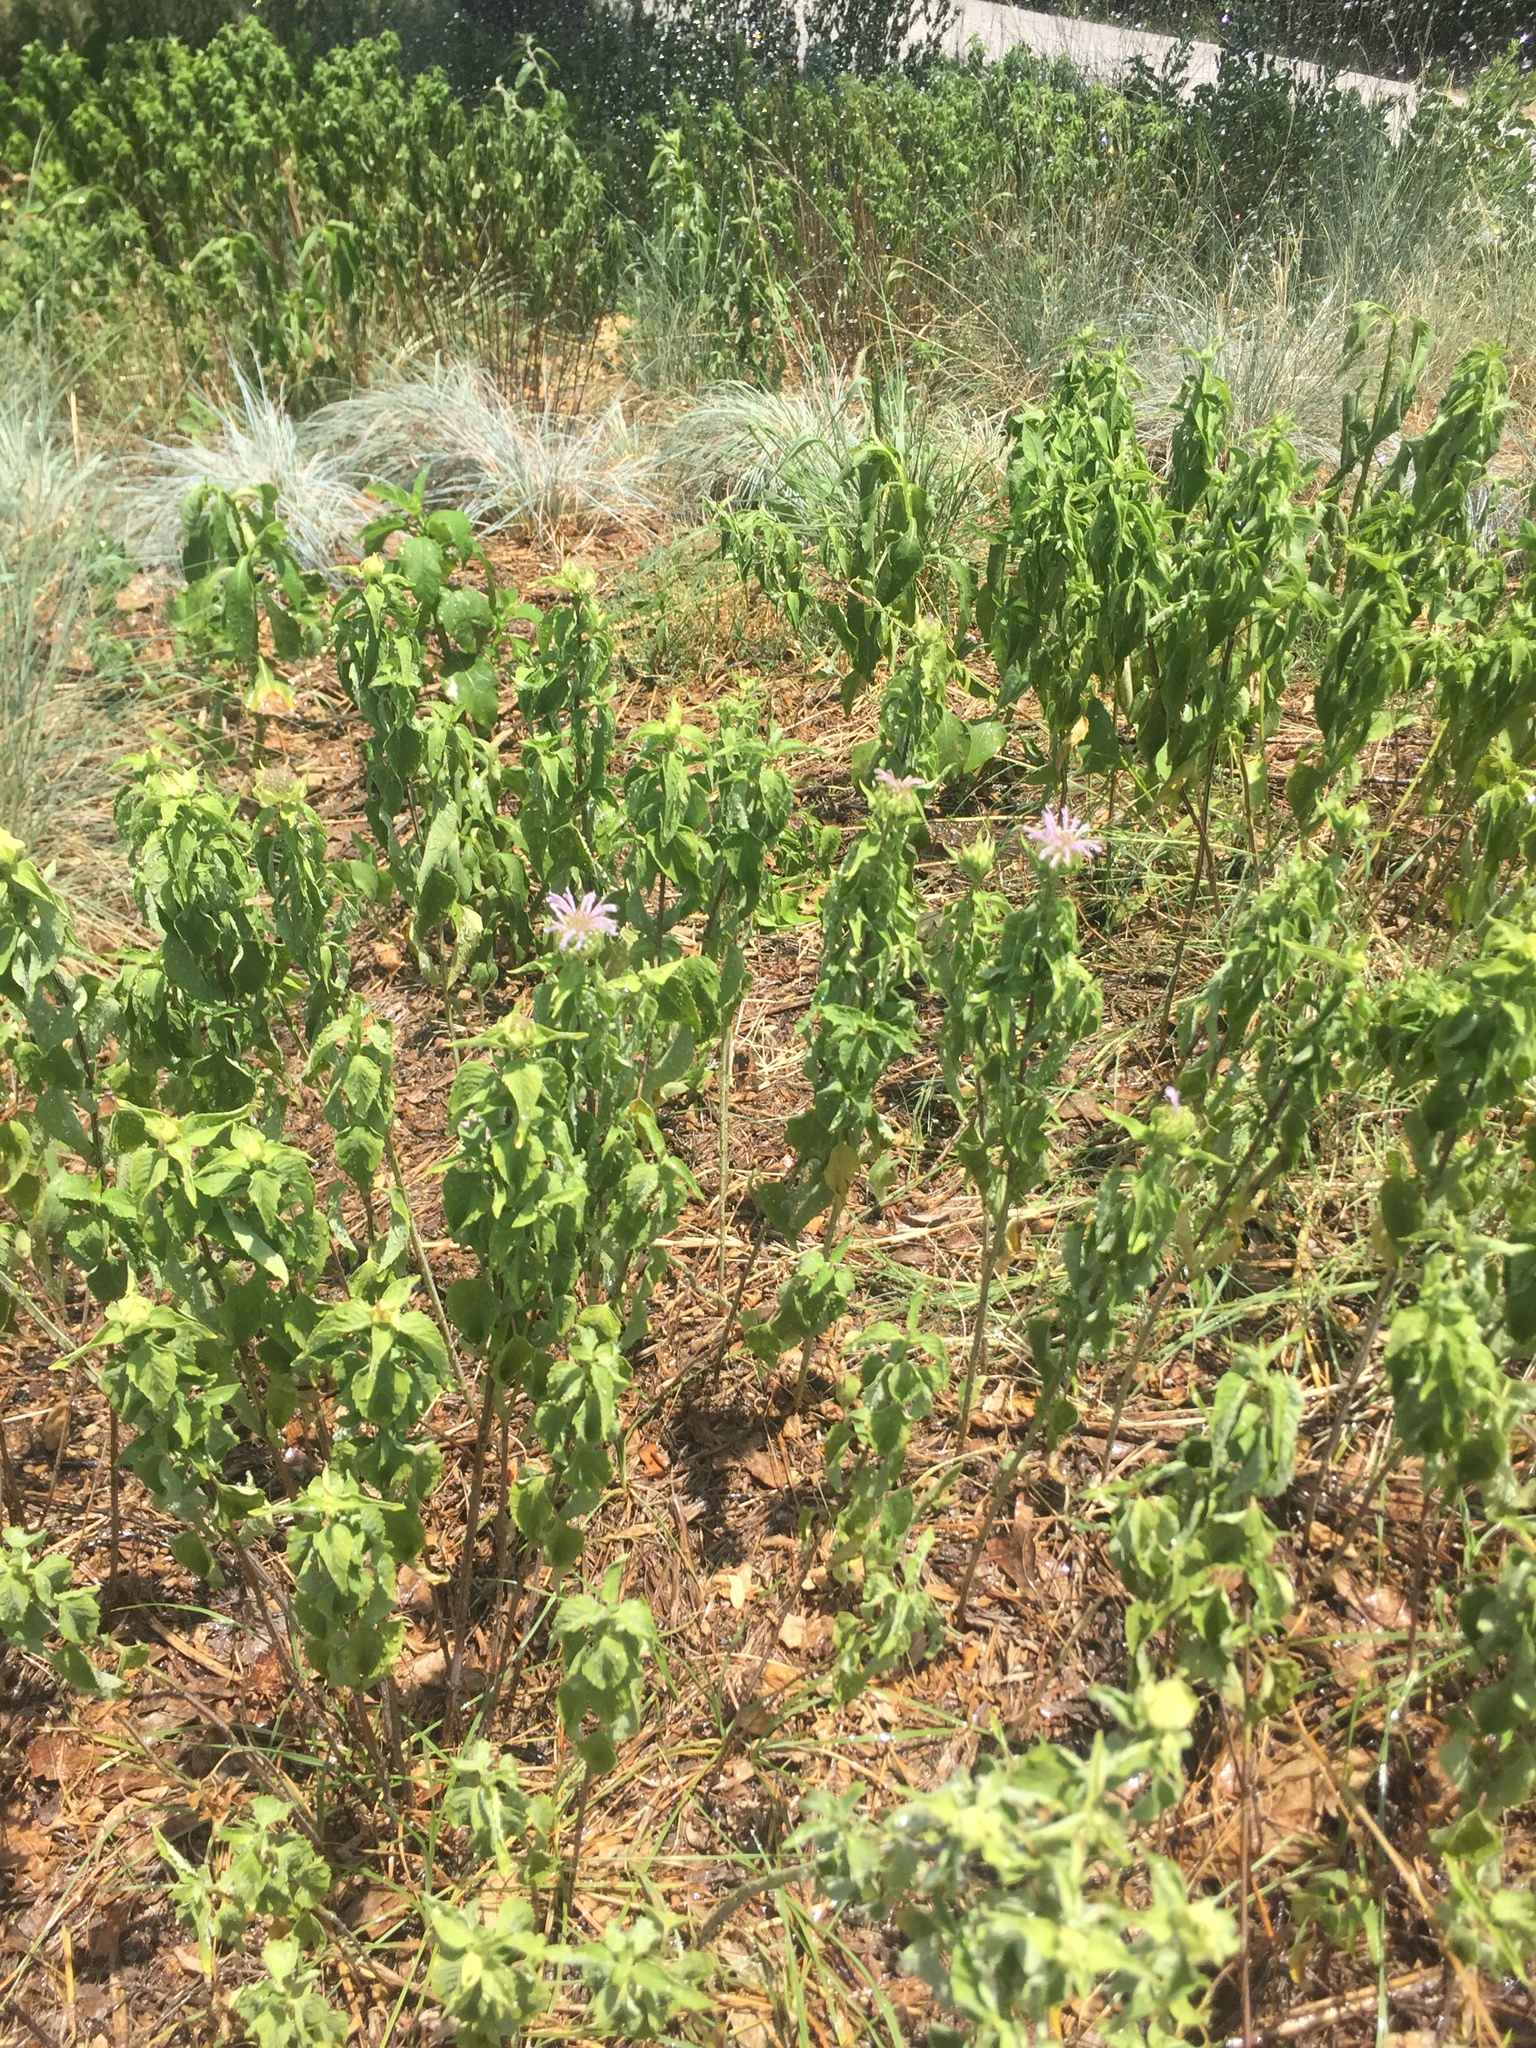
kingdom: Plantae
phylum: Tracheophyta
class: Magnoliopsida
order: Lamiales
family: Lamiaceae
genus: Monarda
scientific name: Monarda fistulosa
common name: Purple beebalm
